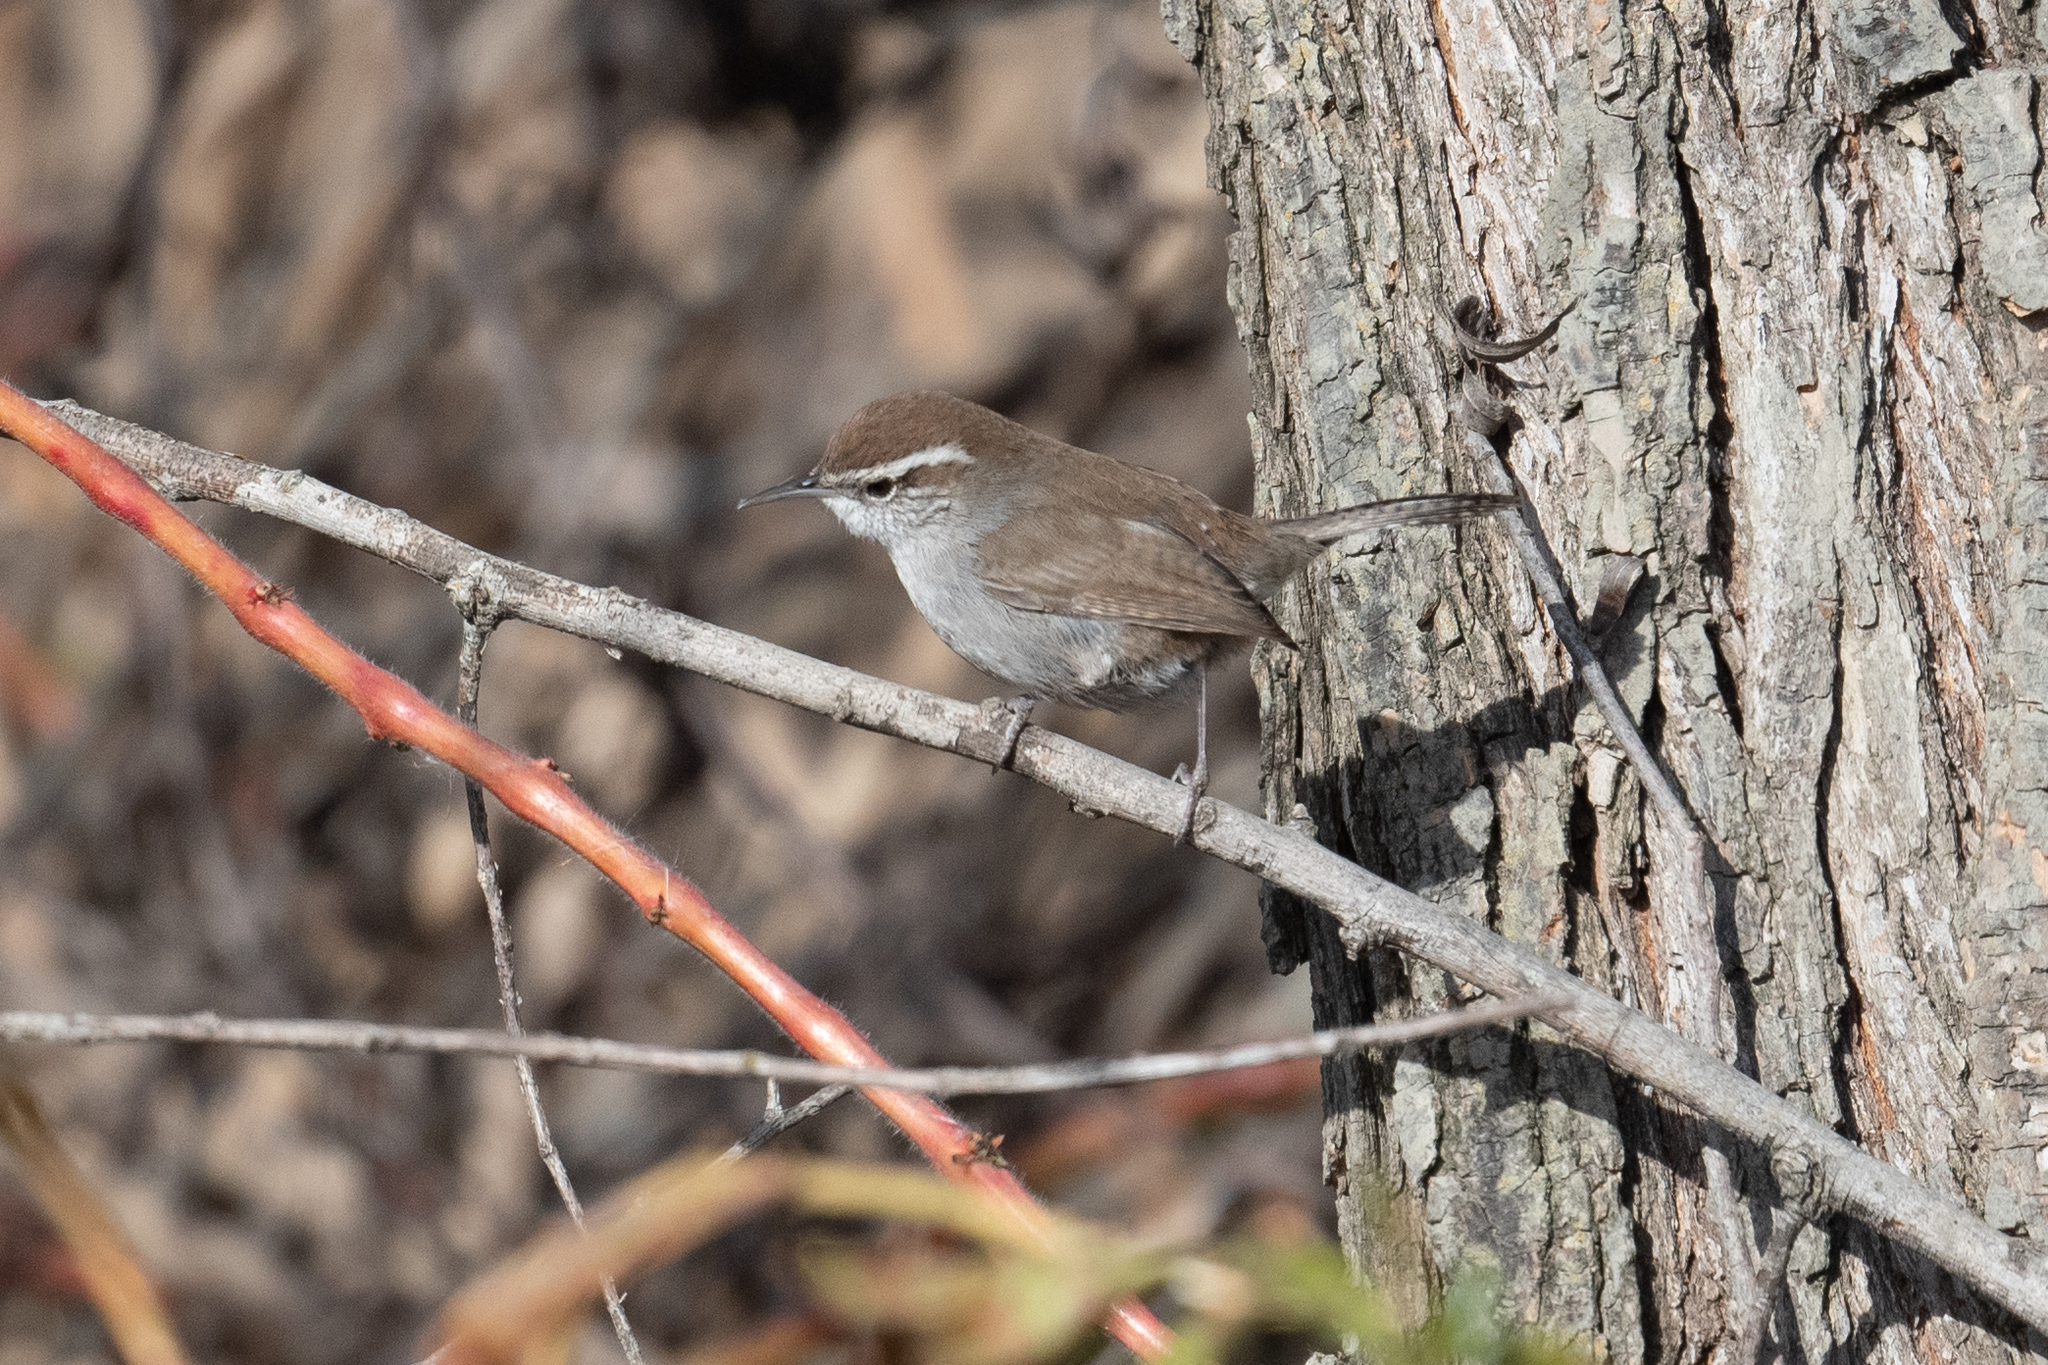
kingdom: Animalia
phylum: Chordata
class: Aves
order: Passeriformes
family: Troglodytidae
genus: Thryomanes
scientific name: Thryomanes bewickii
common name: Bewick's wren
